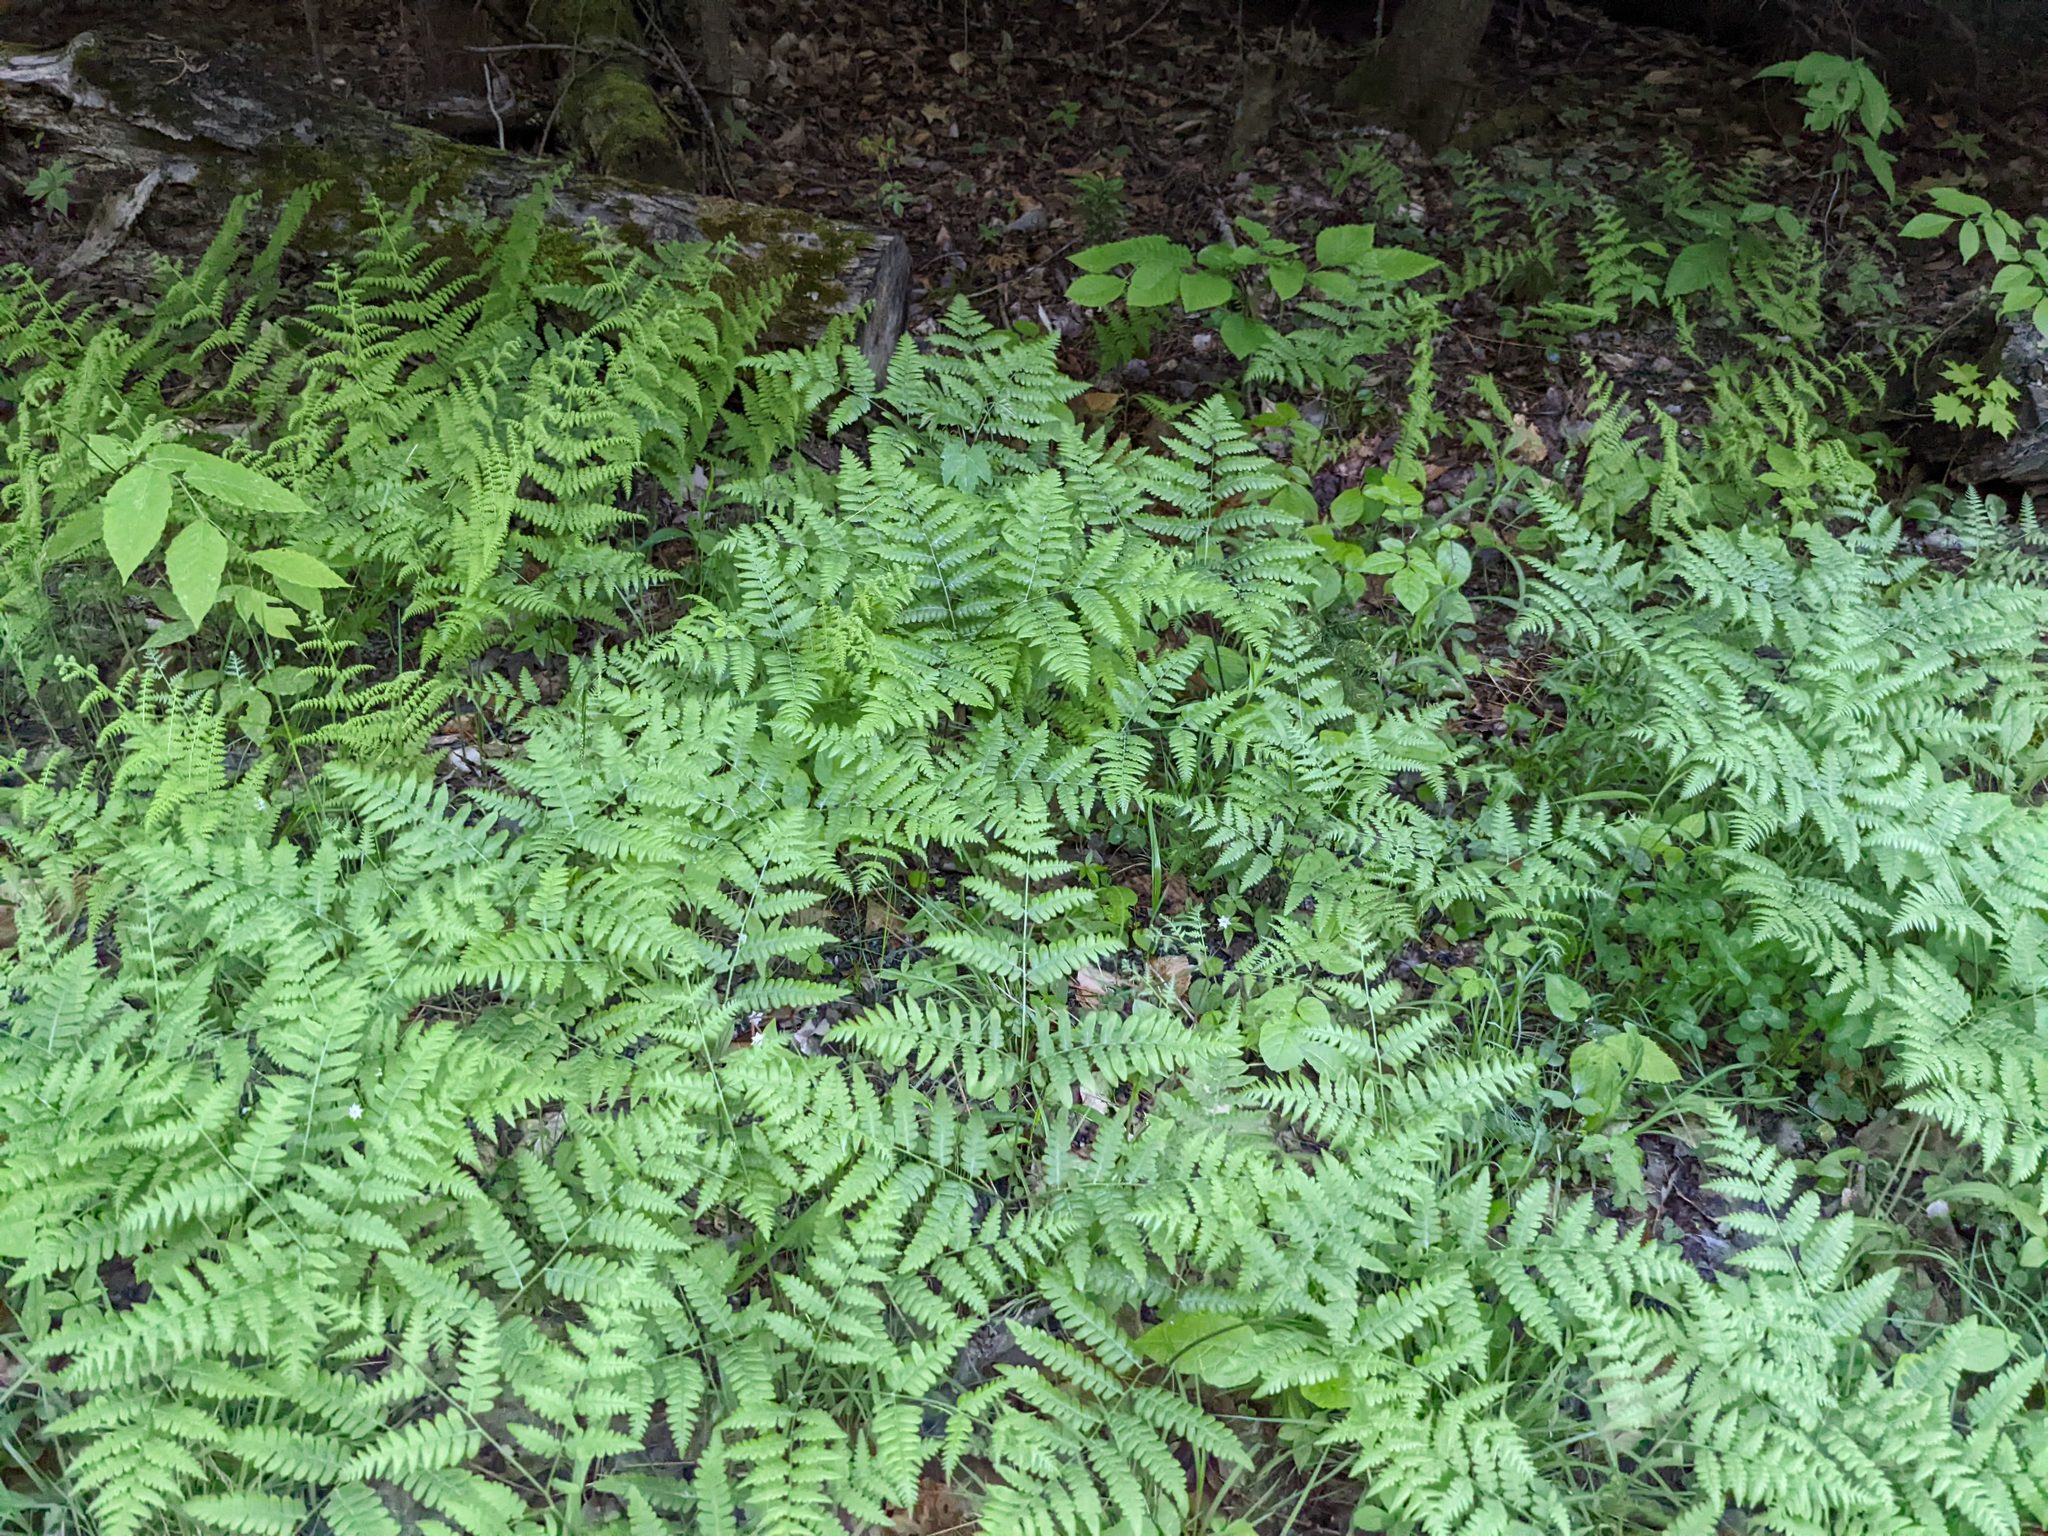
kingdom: Plantae
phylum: Tracheophyta
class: Polypodiopsida
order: Polypodiales
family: Dennstaedtiaceae
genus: Pteridium
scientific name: Pteridium aquilinum
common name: Bracken
